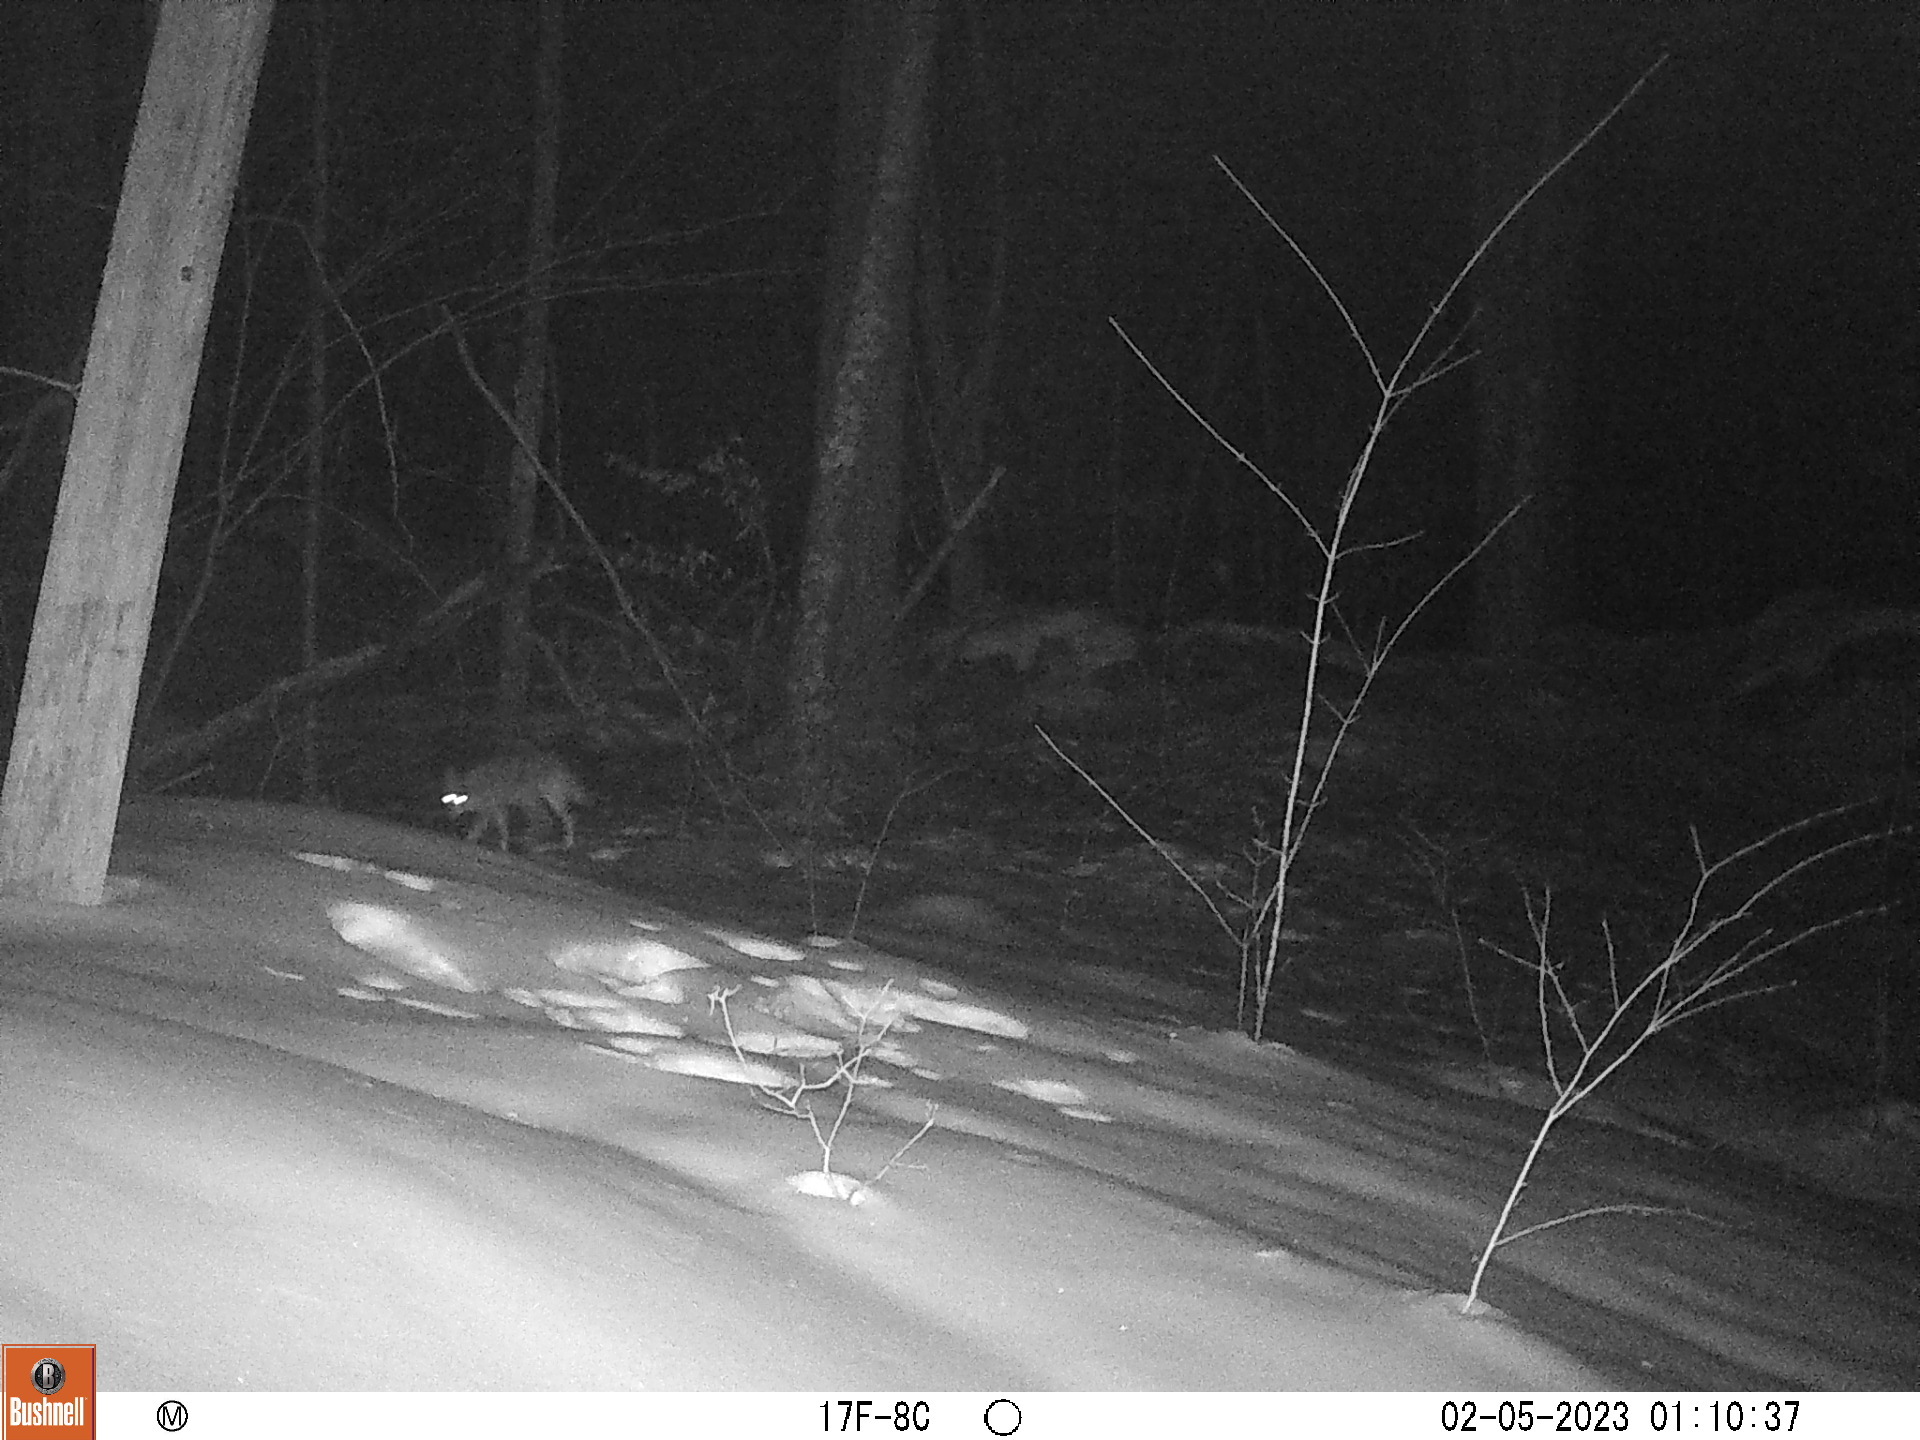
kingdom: Animalia
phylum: Chordata
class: Mammalia
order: Carnivora
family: Canidae
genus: Canis
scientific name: Canis latrans
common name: Coyote
